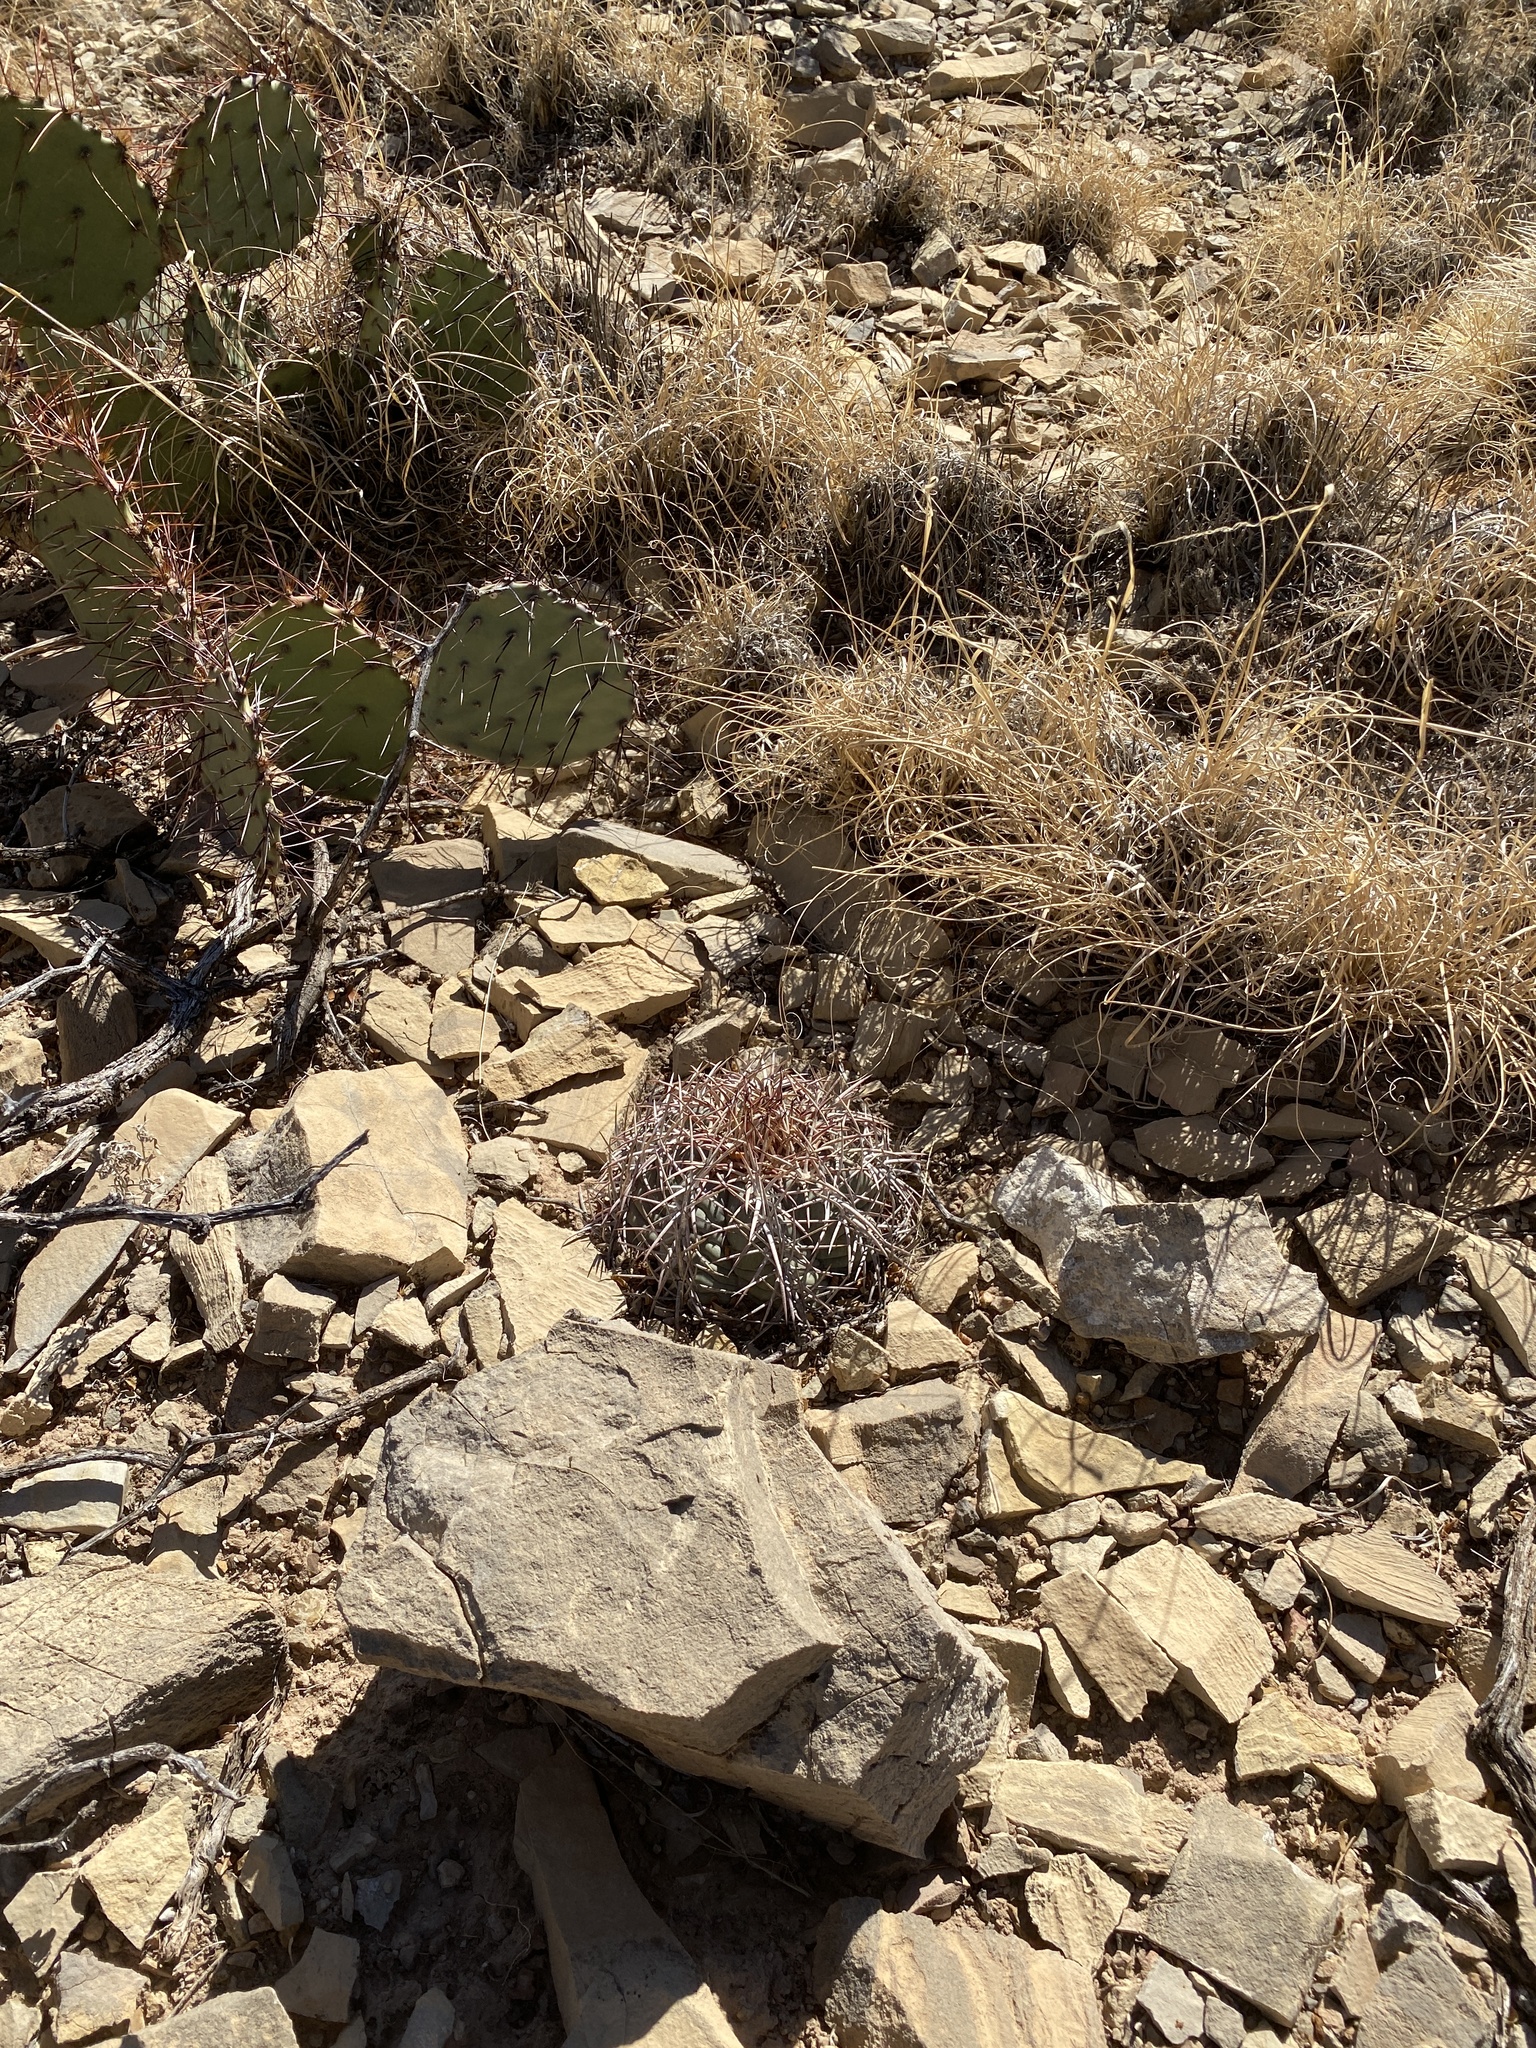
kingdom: Plantae
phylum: Tracheophyta
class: Magnoliopsida
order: Caryophyllales
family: Cactaceae
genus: Echinocactus
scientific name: Echinocactus horizonthalonius
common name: Devilshead
